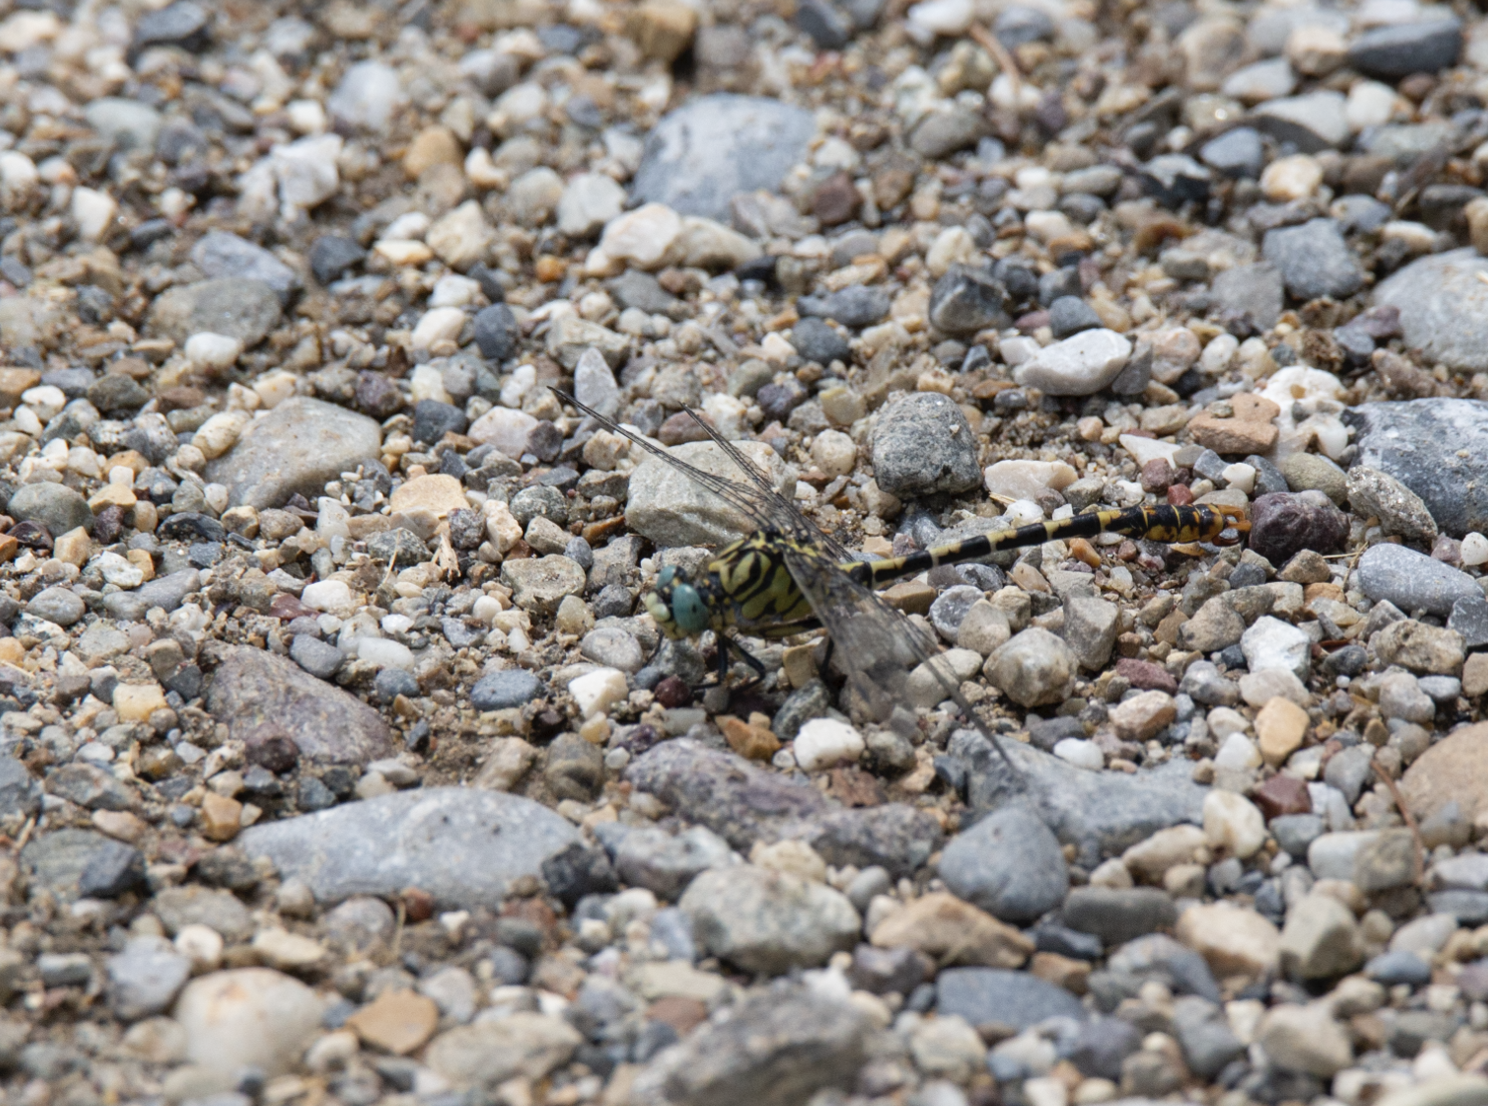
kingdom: Animalia
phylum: Arthropoda
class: Insecta
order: Odonata
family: Gomphidae
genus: Onychogomphus
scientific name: Onychogomphus forcipatus
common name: Small pincertail
